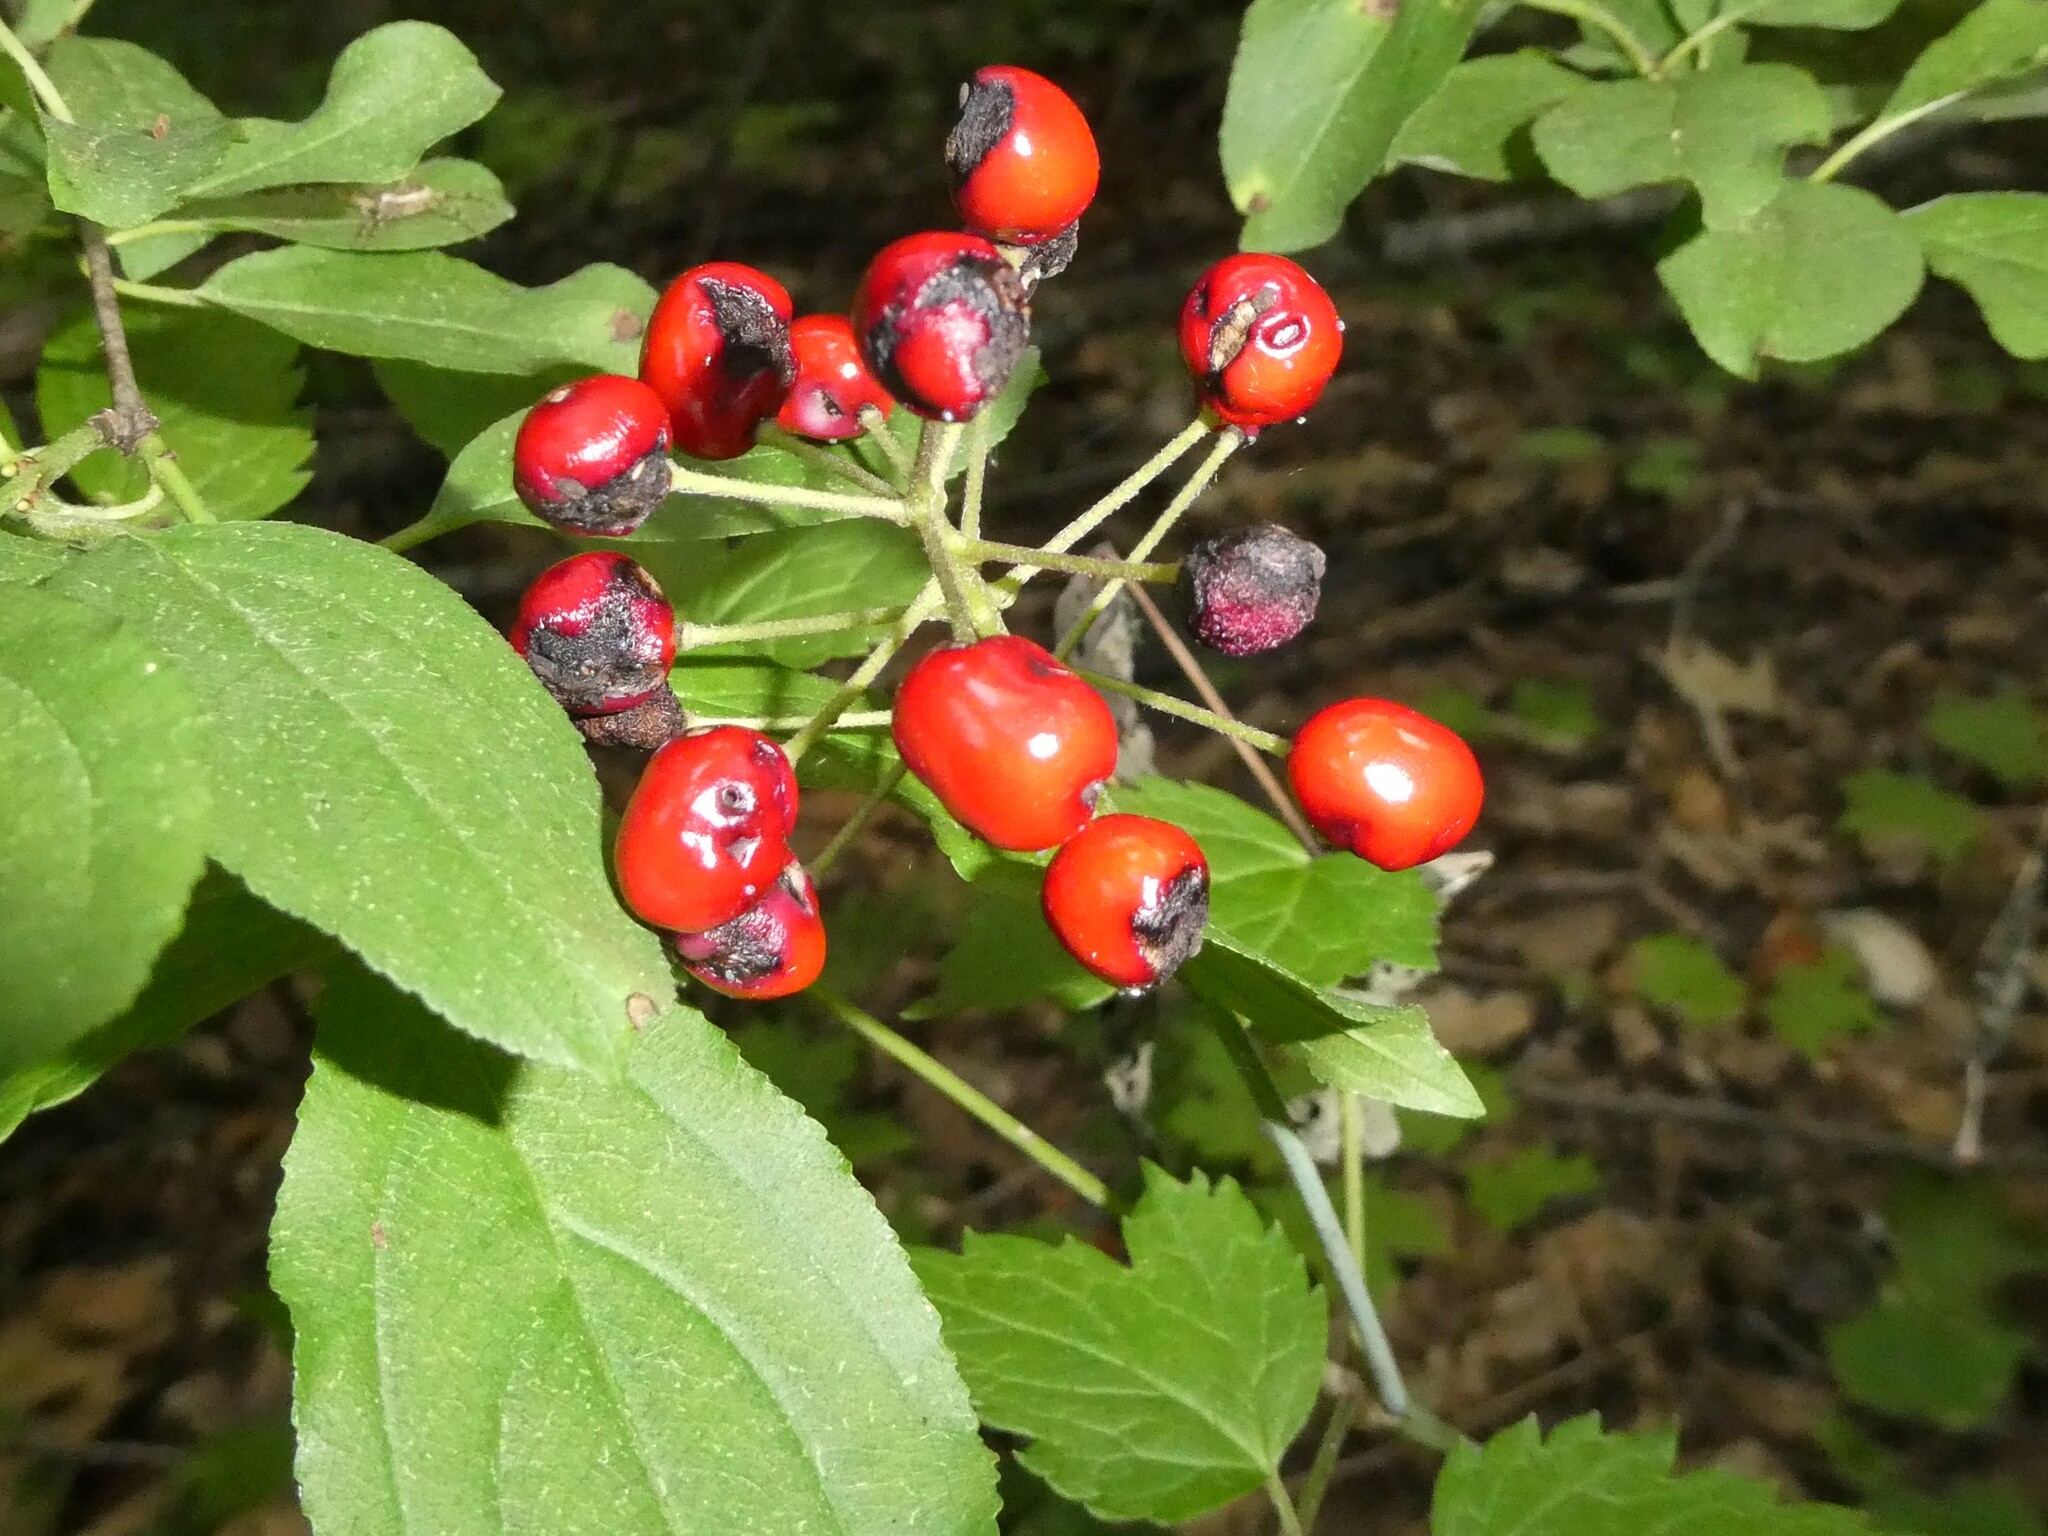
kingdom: Plantae
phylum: Tracheophyta
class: Magnoliopsida
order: Ranunculales
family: Ranunculaceae
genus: Actaea
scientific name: Actaea rubra
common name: Red baneberry
